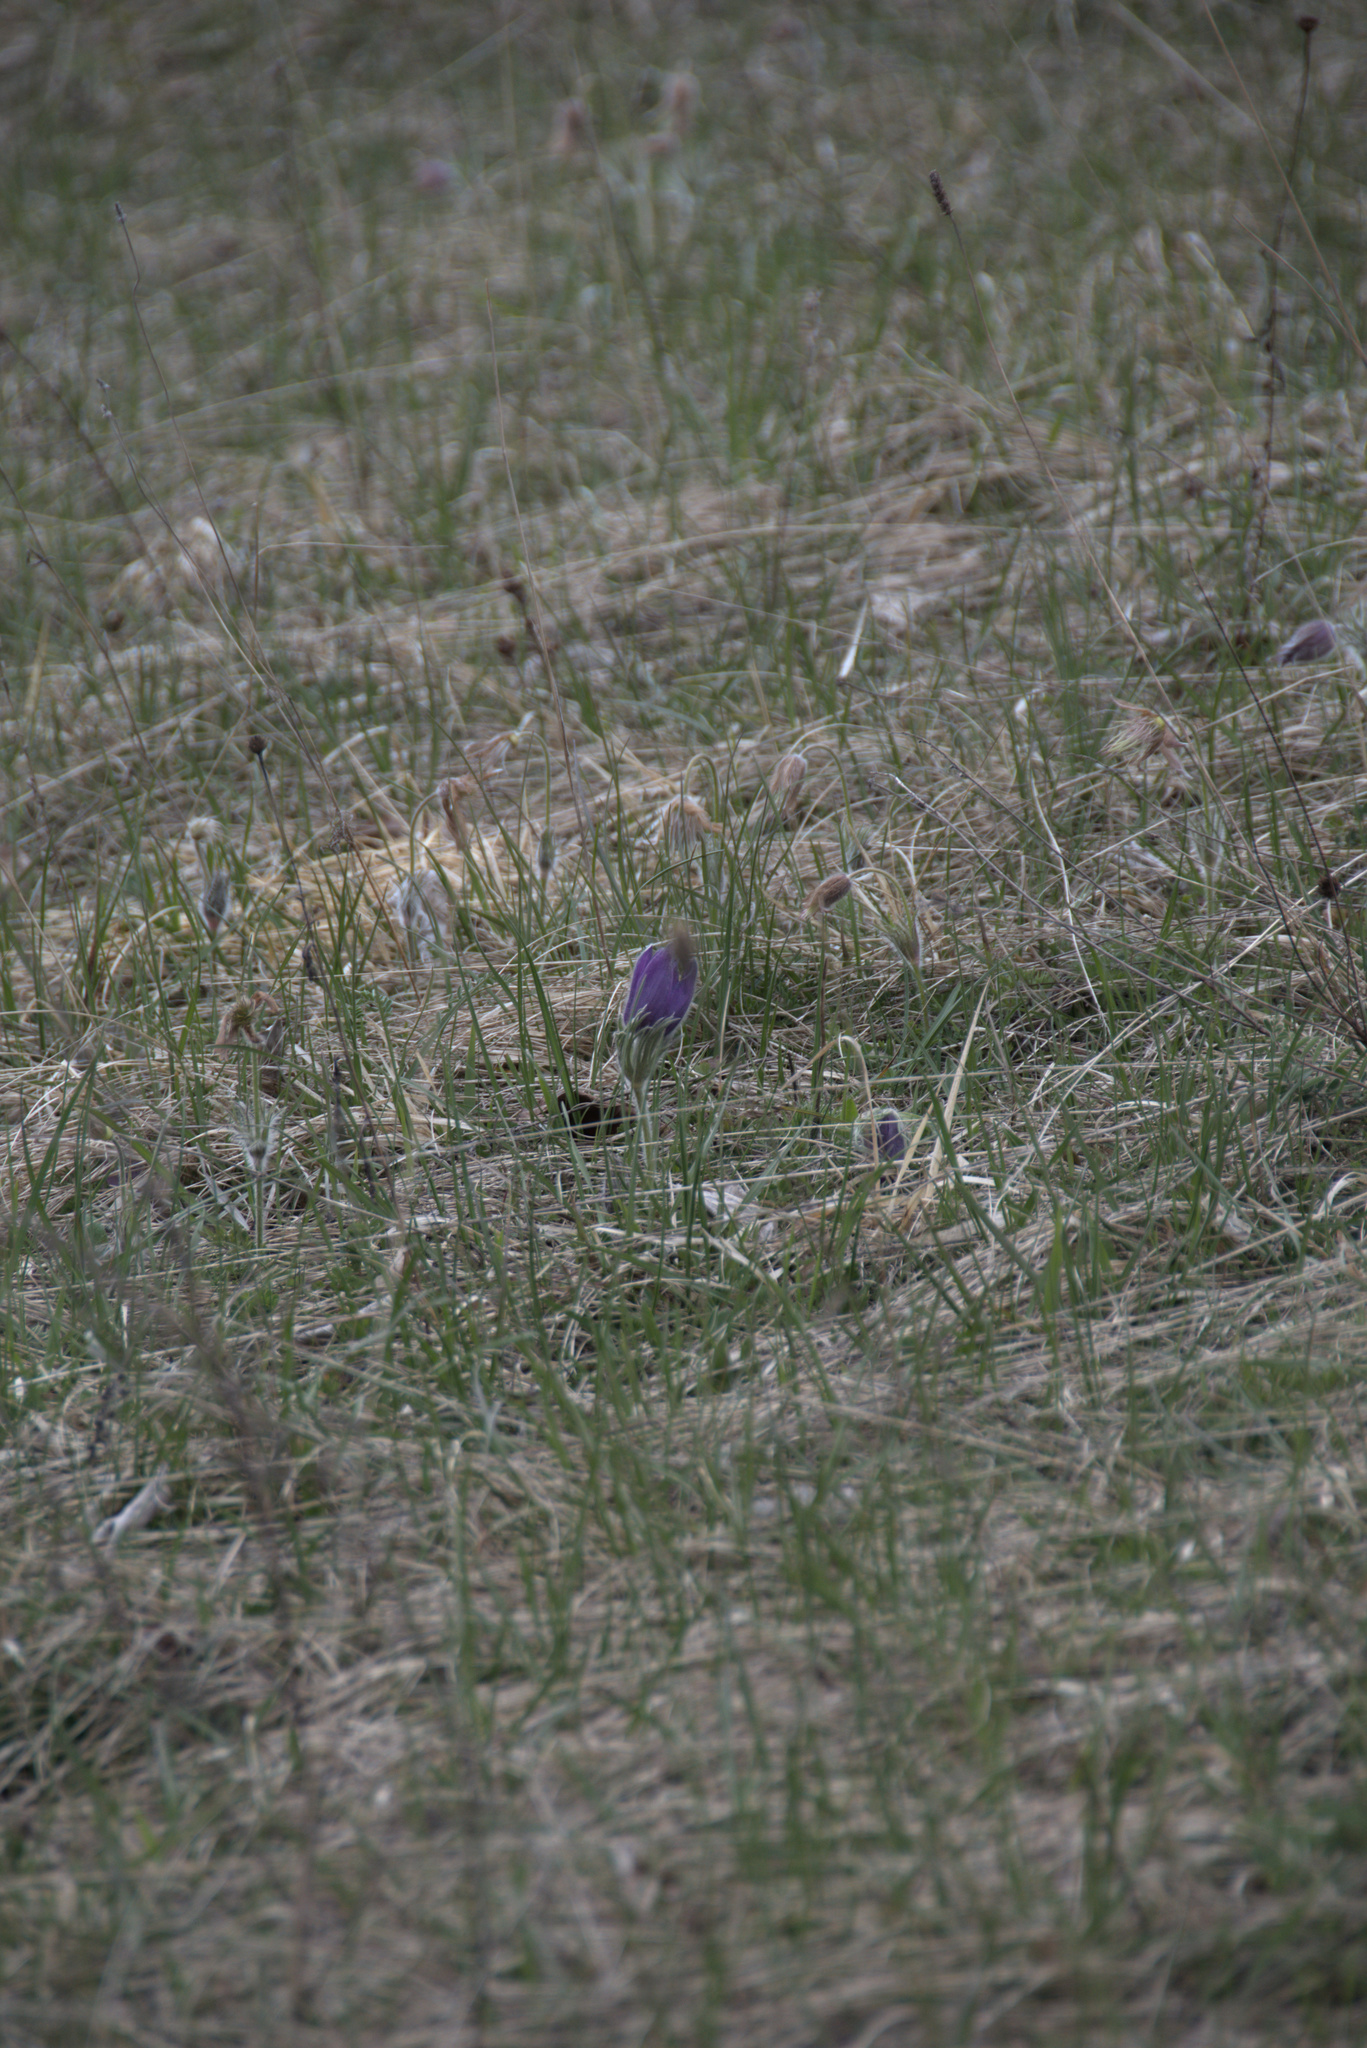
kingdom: Plantae
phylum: Tracheophyta
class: Magnoliopsida
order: Ranunculales
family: Ranunculaceae
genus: Pulsatilla
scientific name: Pulsatilla vulgaris
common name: Pasqueflower
